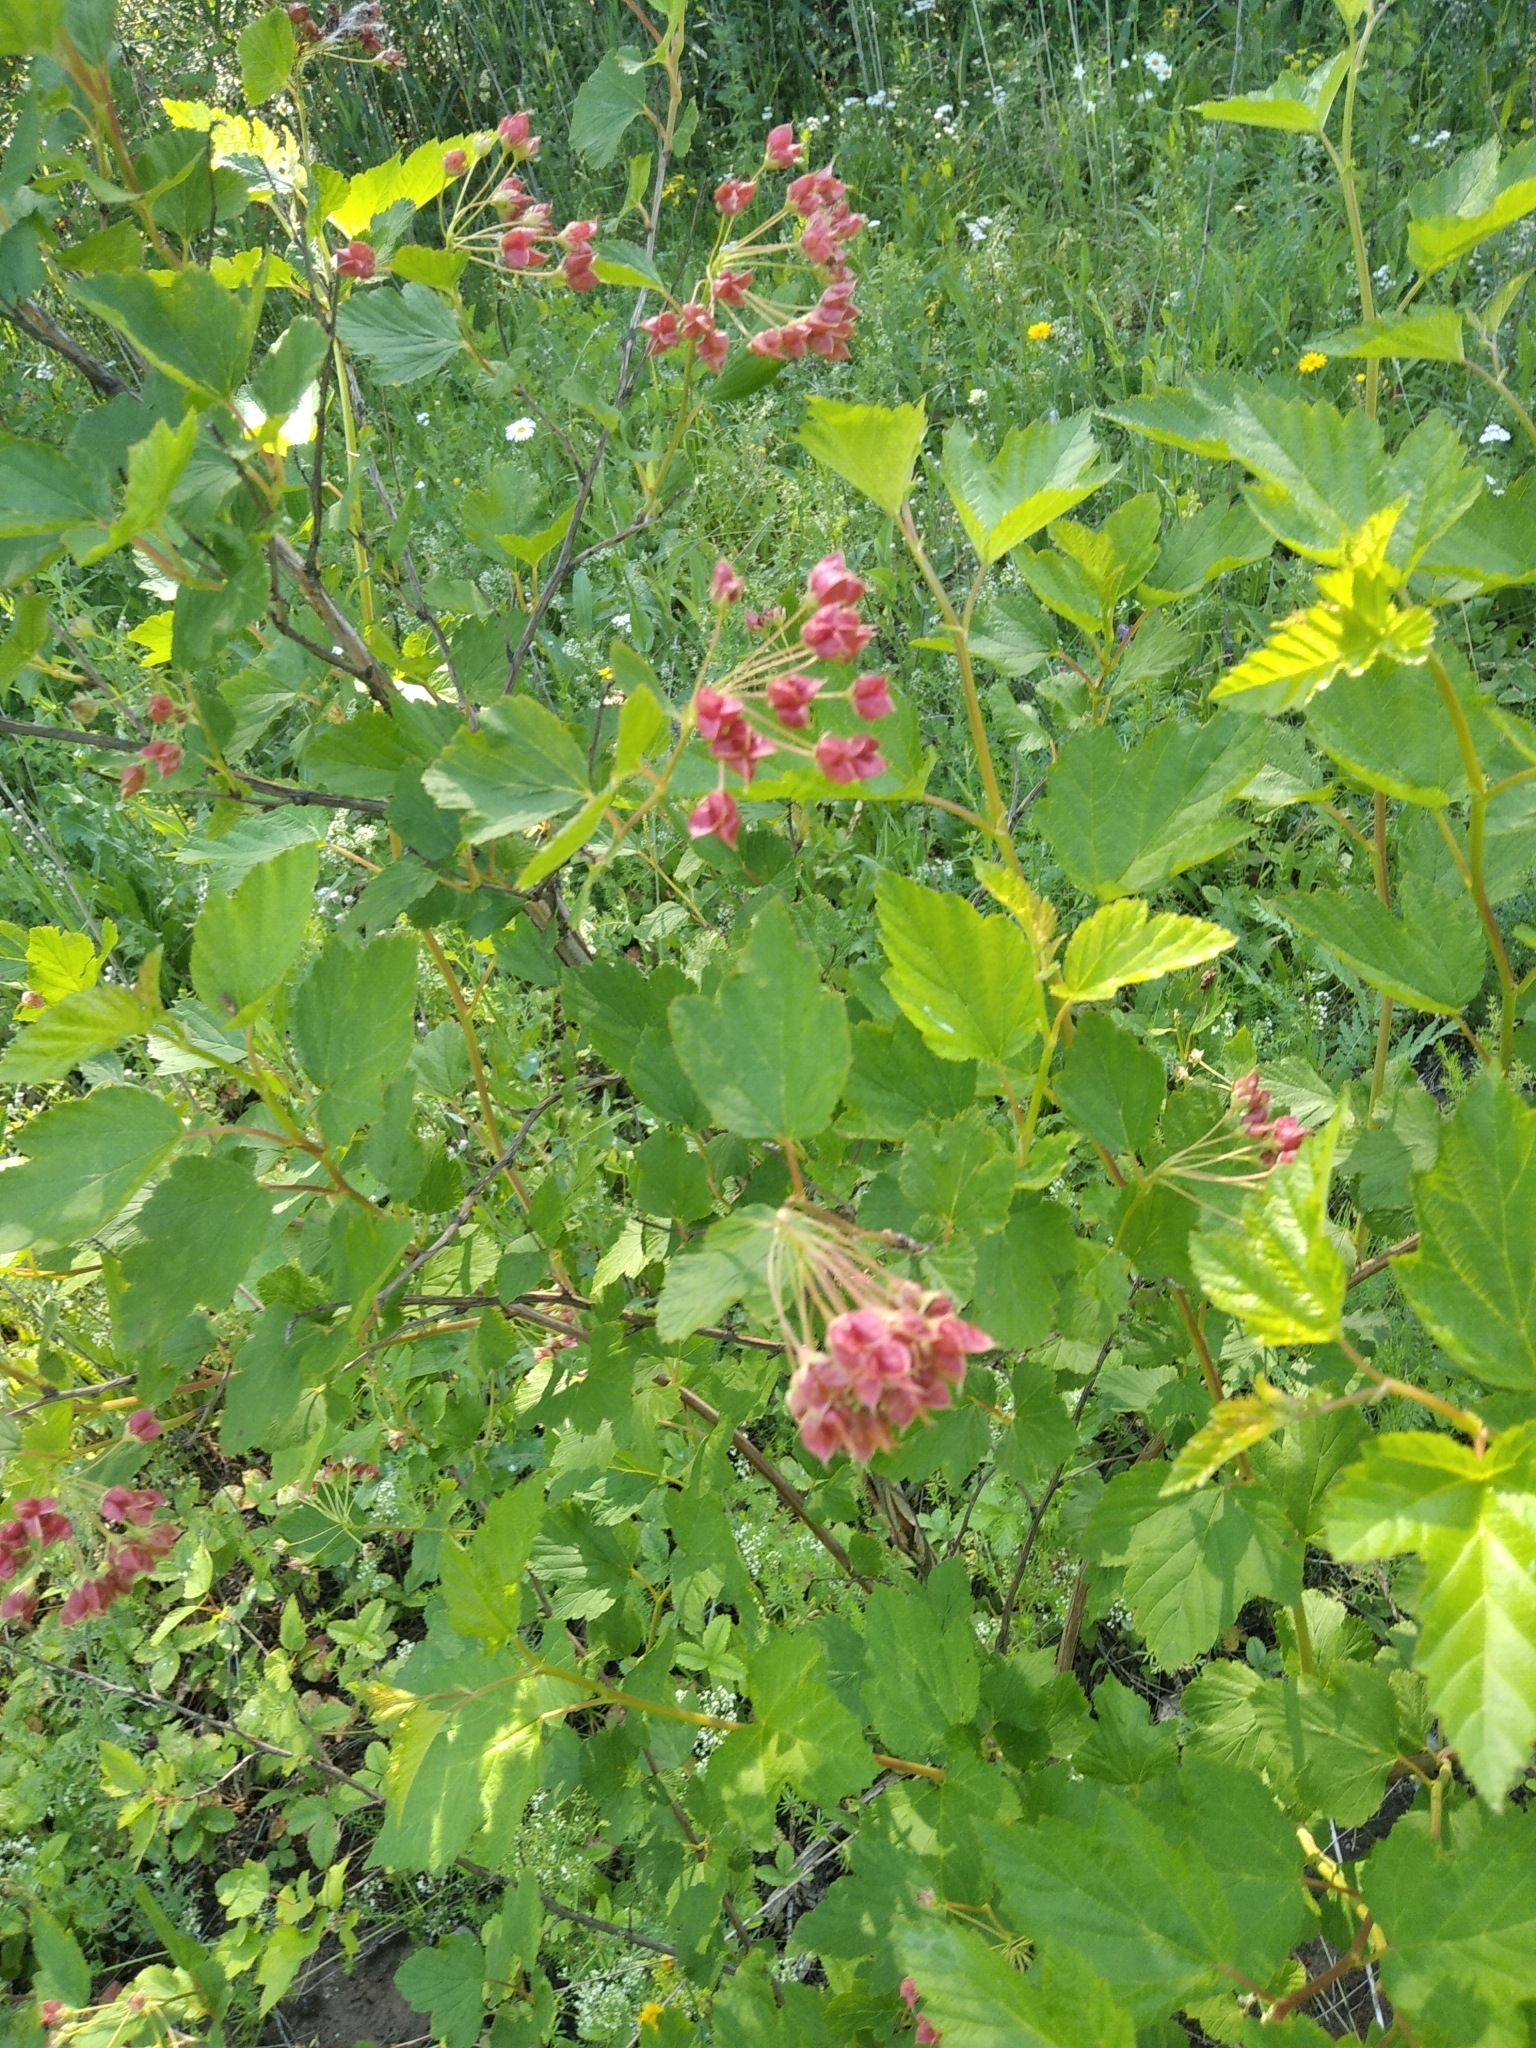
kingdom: Plantae
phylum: Tracheophyta
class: Magnoliopsida
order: Rosales
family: Rosaceae
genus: Physocarpus
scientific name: Physocarpus opulifolius
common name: Ninebark
